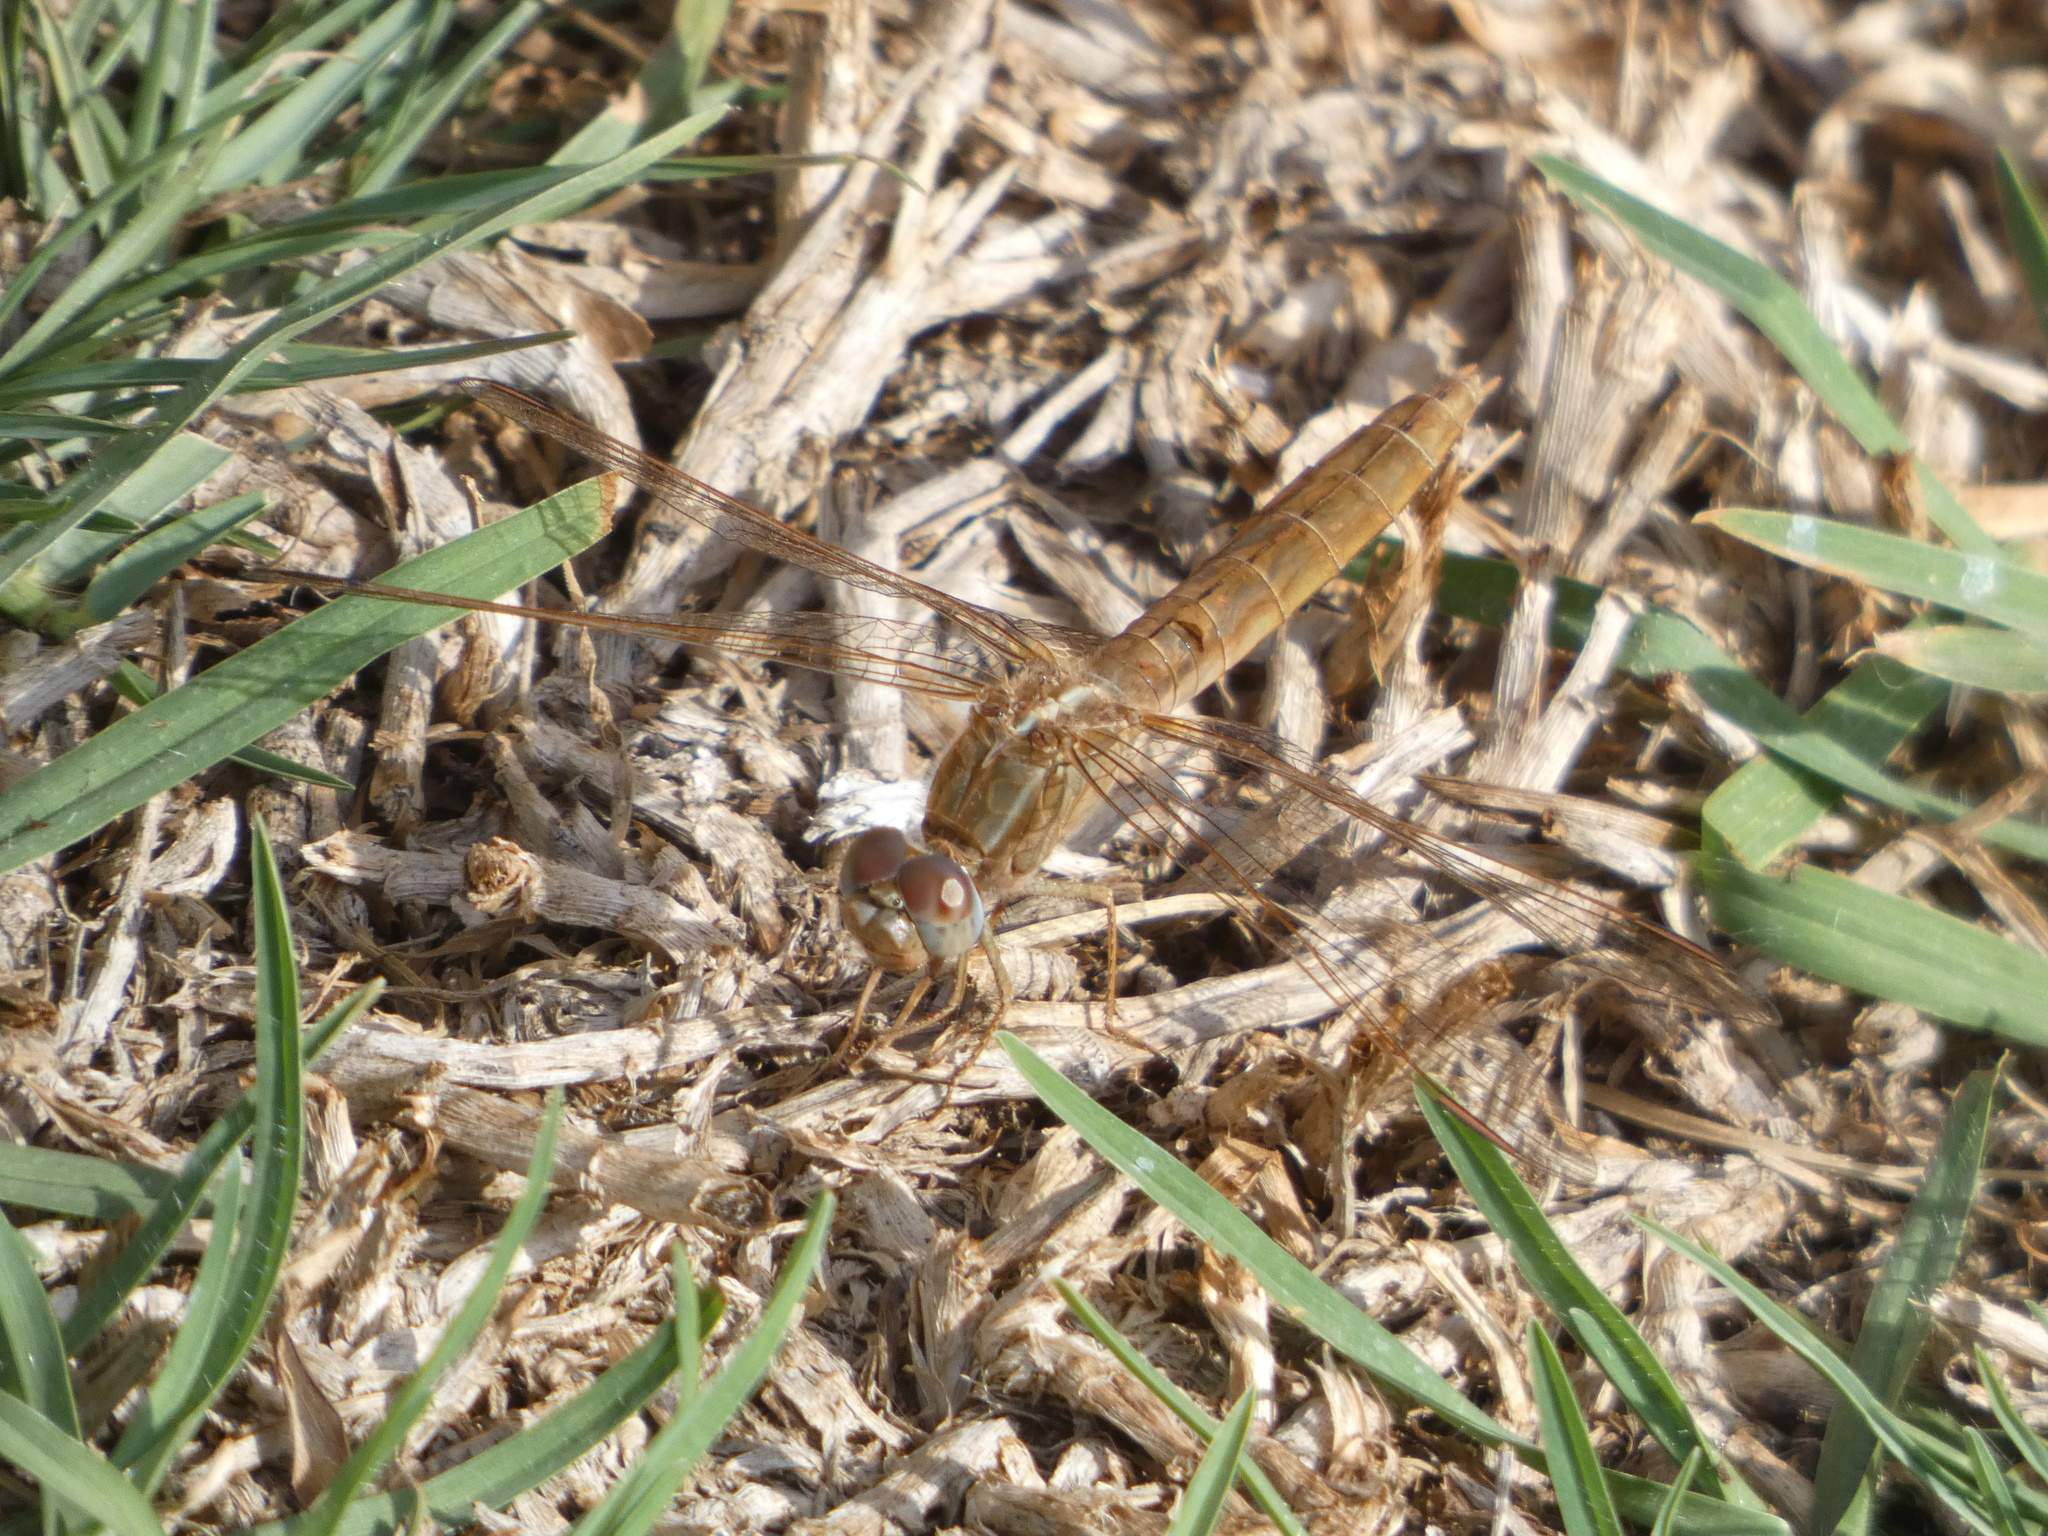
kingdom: Animalia
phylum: Arthropoda
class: Insecta
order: Odonata
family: Libellulidae
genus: Crocothemis
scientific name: Crocothemis erythraea
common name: Scarlet dragonfly
